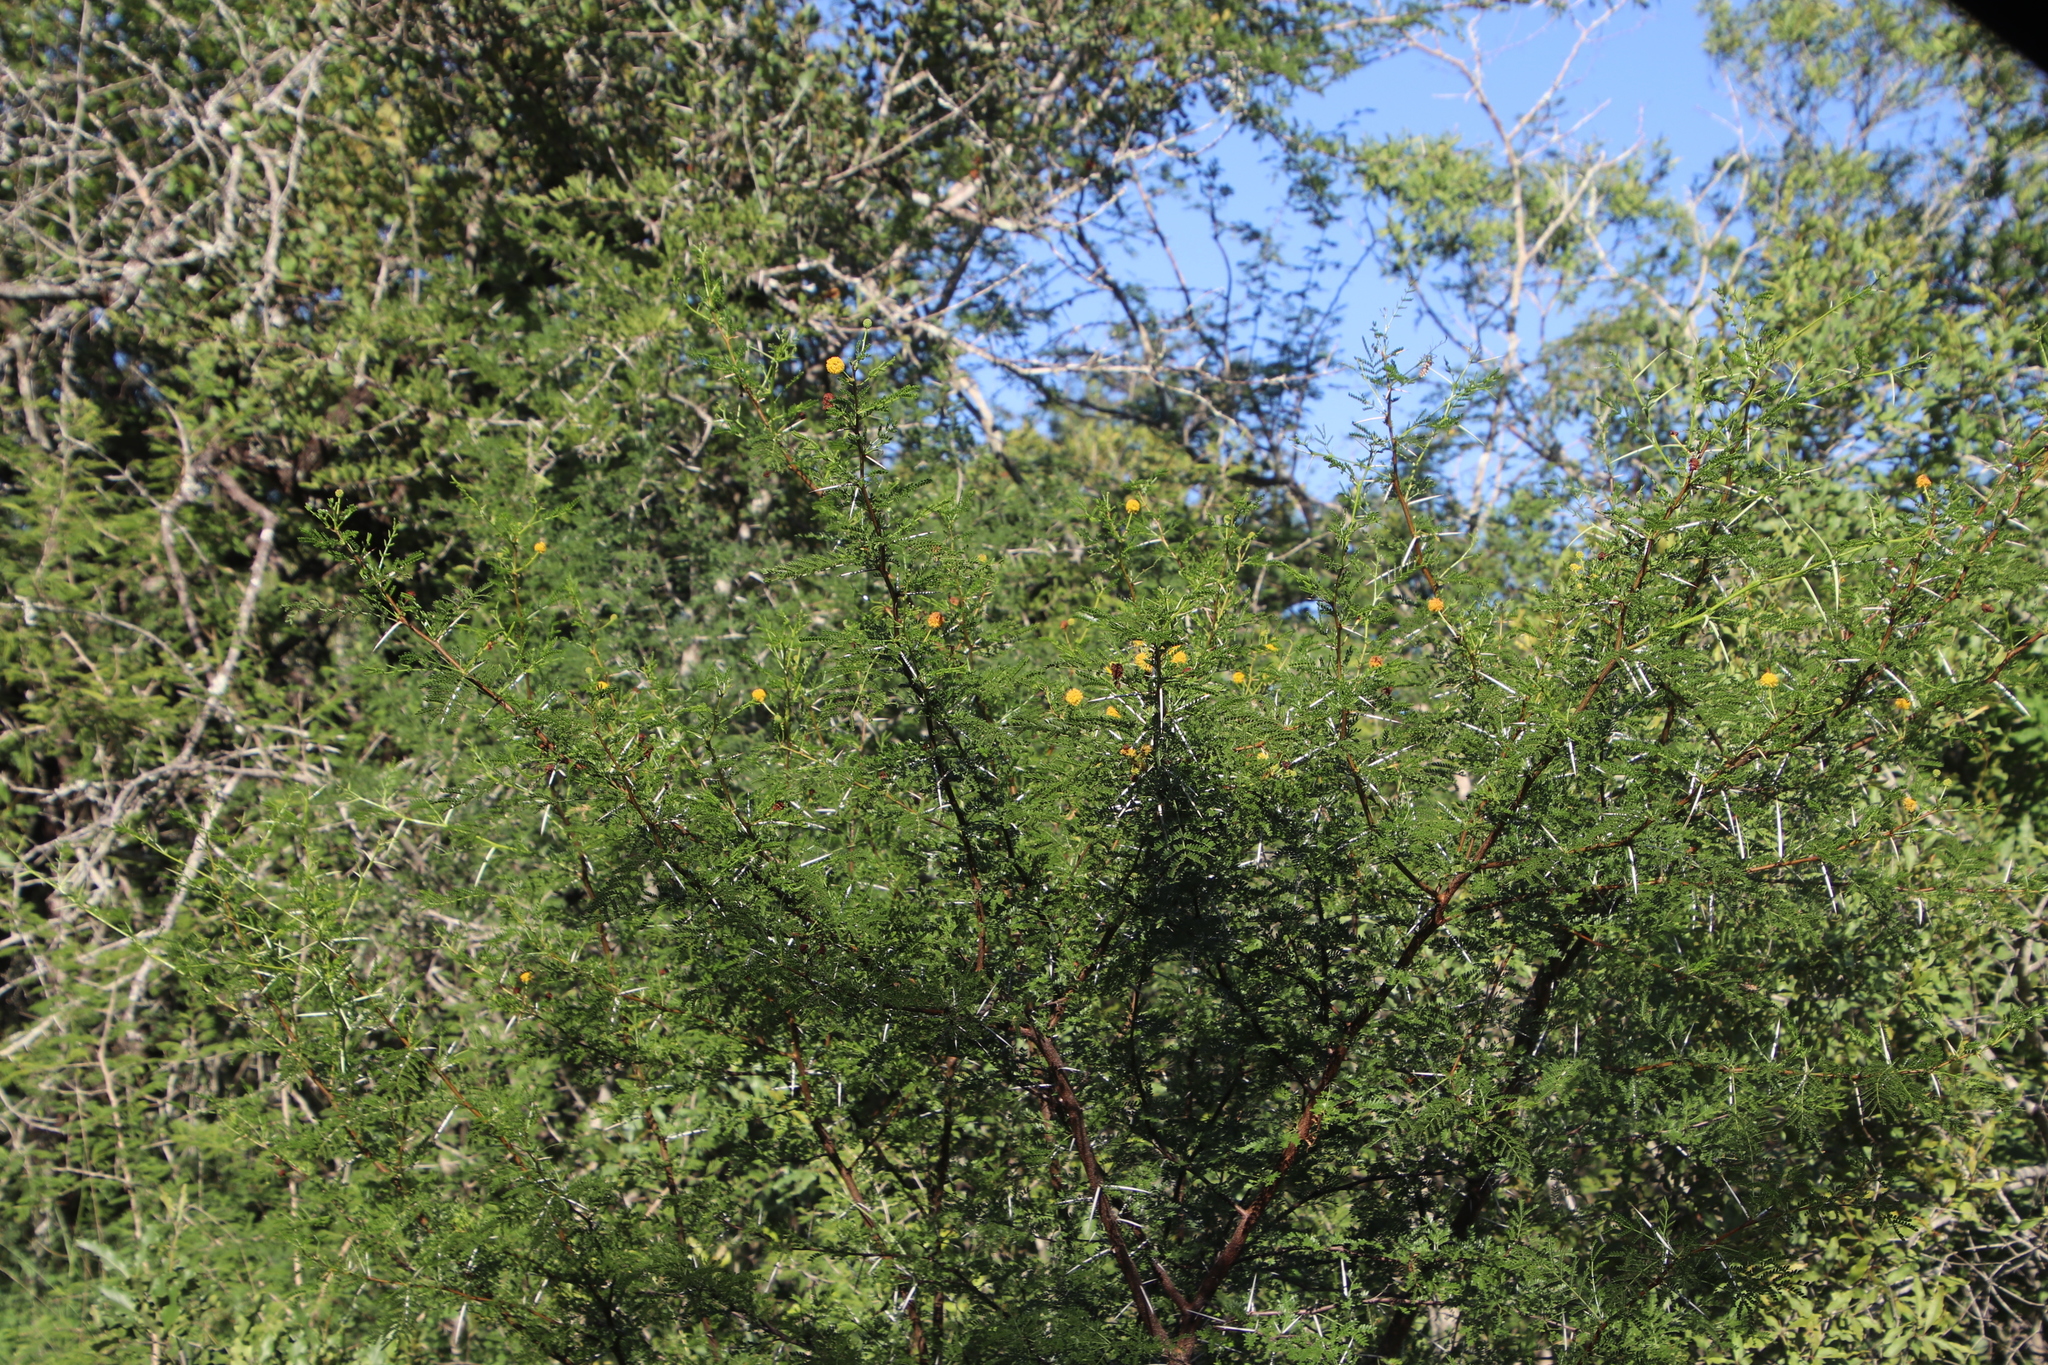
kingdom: Plantae
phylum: Tracheophyta
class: Magnoliopsida
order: Fabales
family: Fabaceae
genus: Vachellia
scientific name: Vachellia karroo
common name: Sweet thorn
